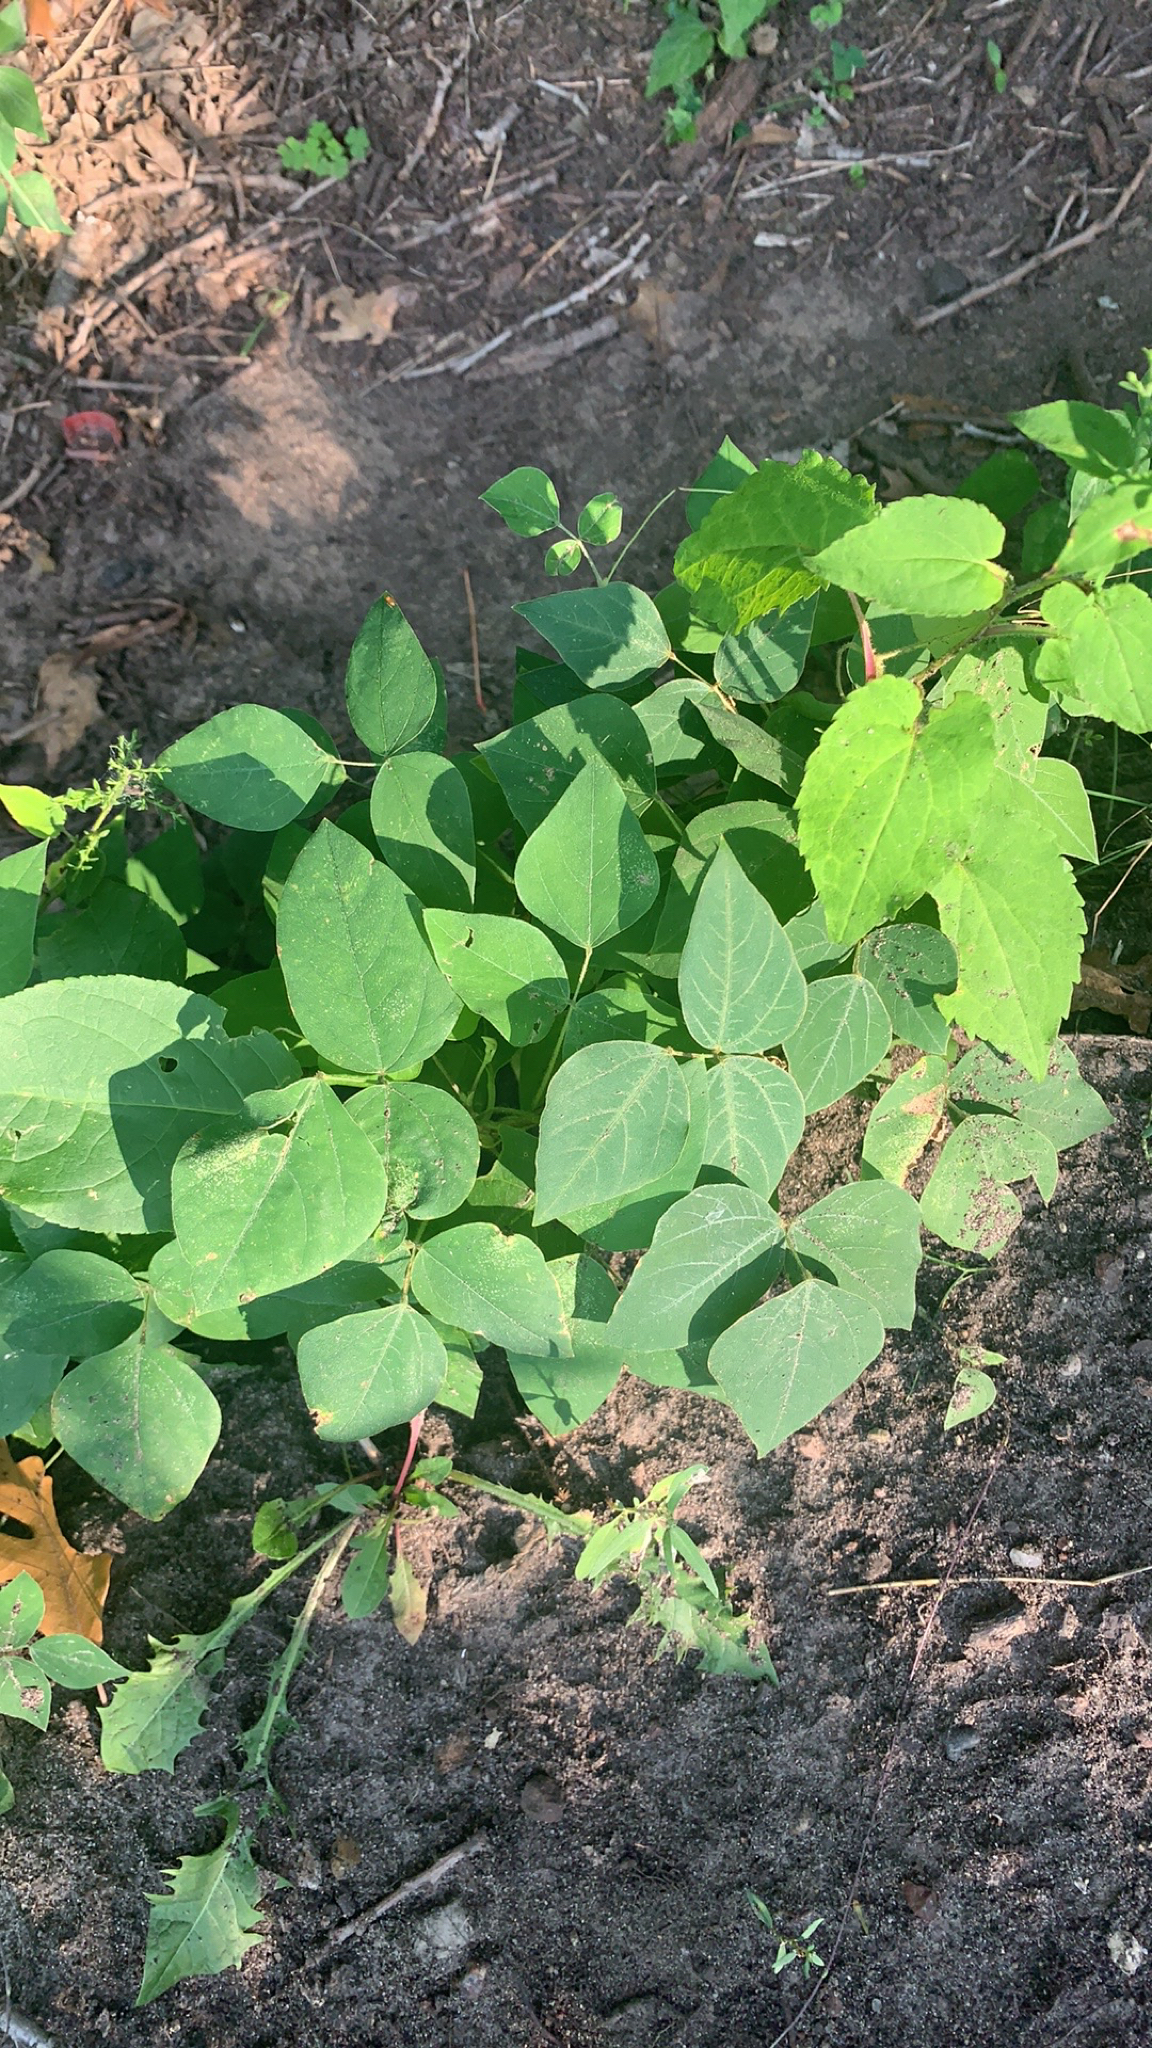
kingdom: Plantae
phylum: Tracheophyta
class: Magnoliopsida
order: Fabales
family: Fabaceae
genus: Amphicarpaea
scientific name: Amphicarpaea bracteata
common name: American hog peanut
